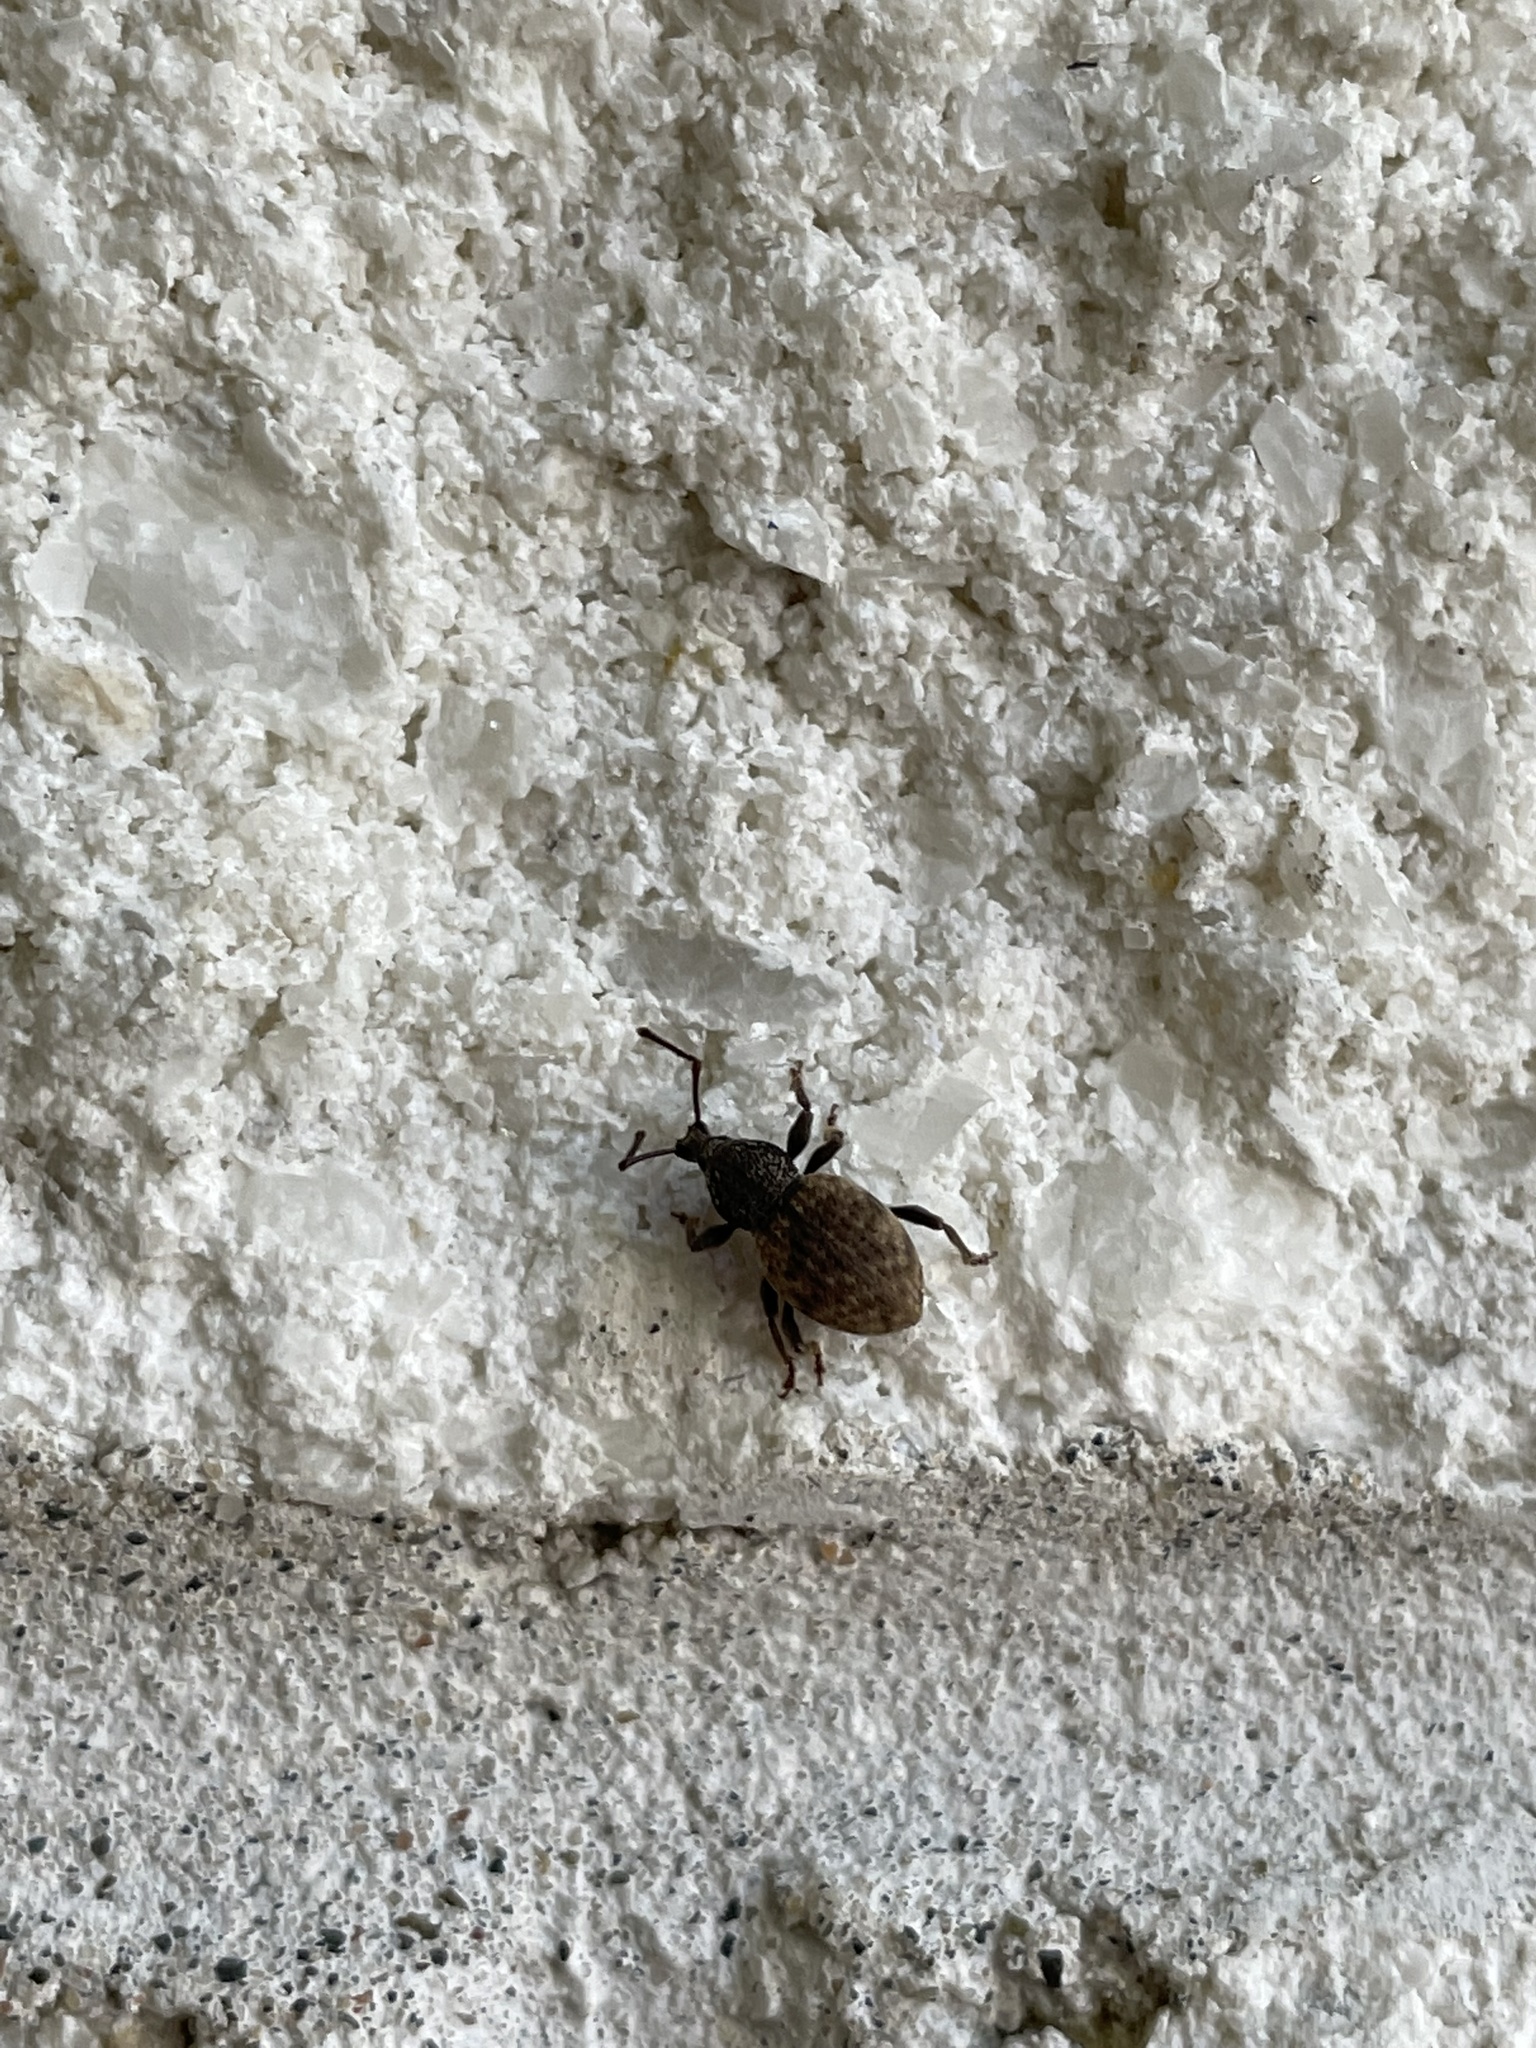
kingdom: Animalia
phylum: Arthropoda
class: Insecta
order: Coleoptera
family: Curculionidae
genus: Otiorhynchus
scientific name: Otiorhynchus raucus
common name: Weevil
